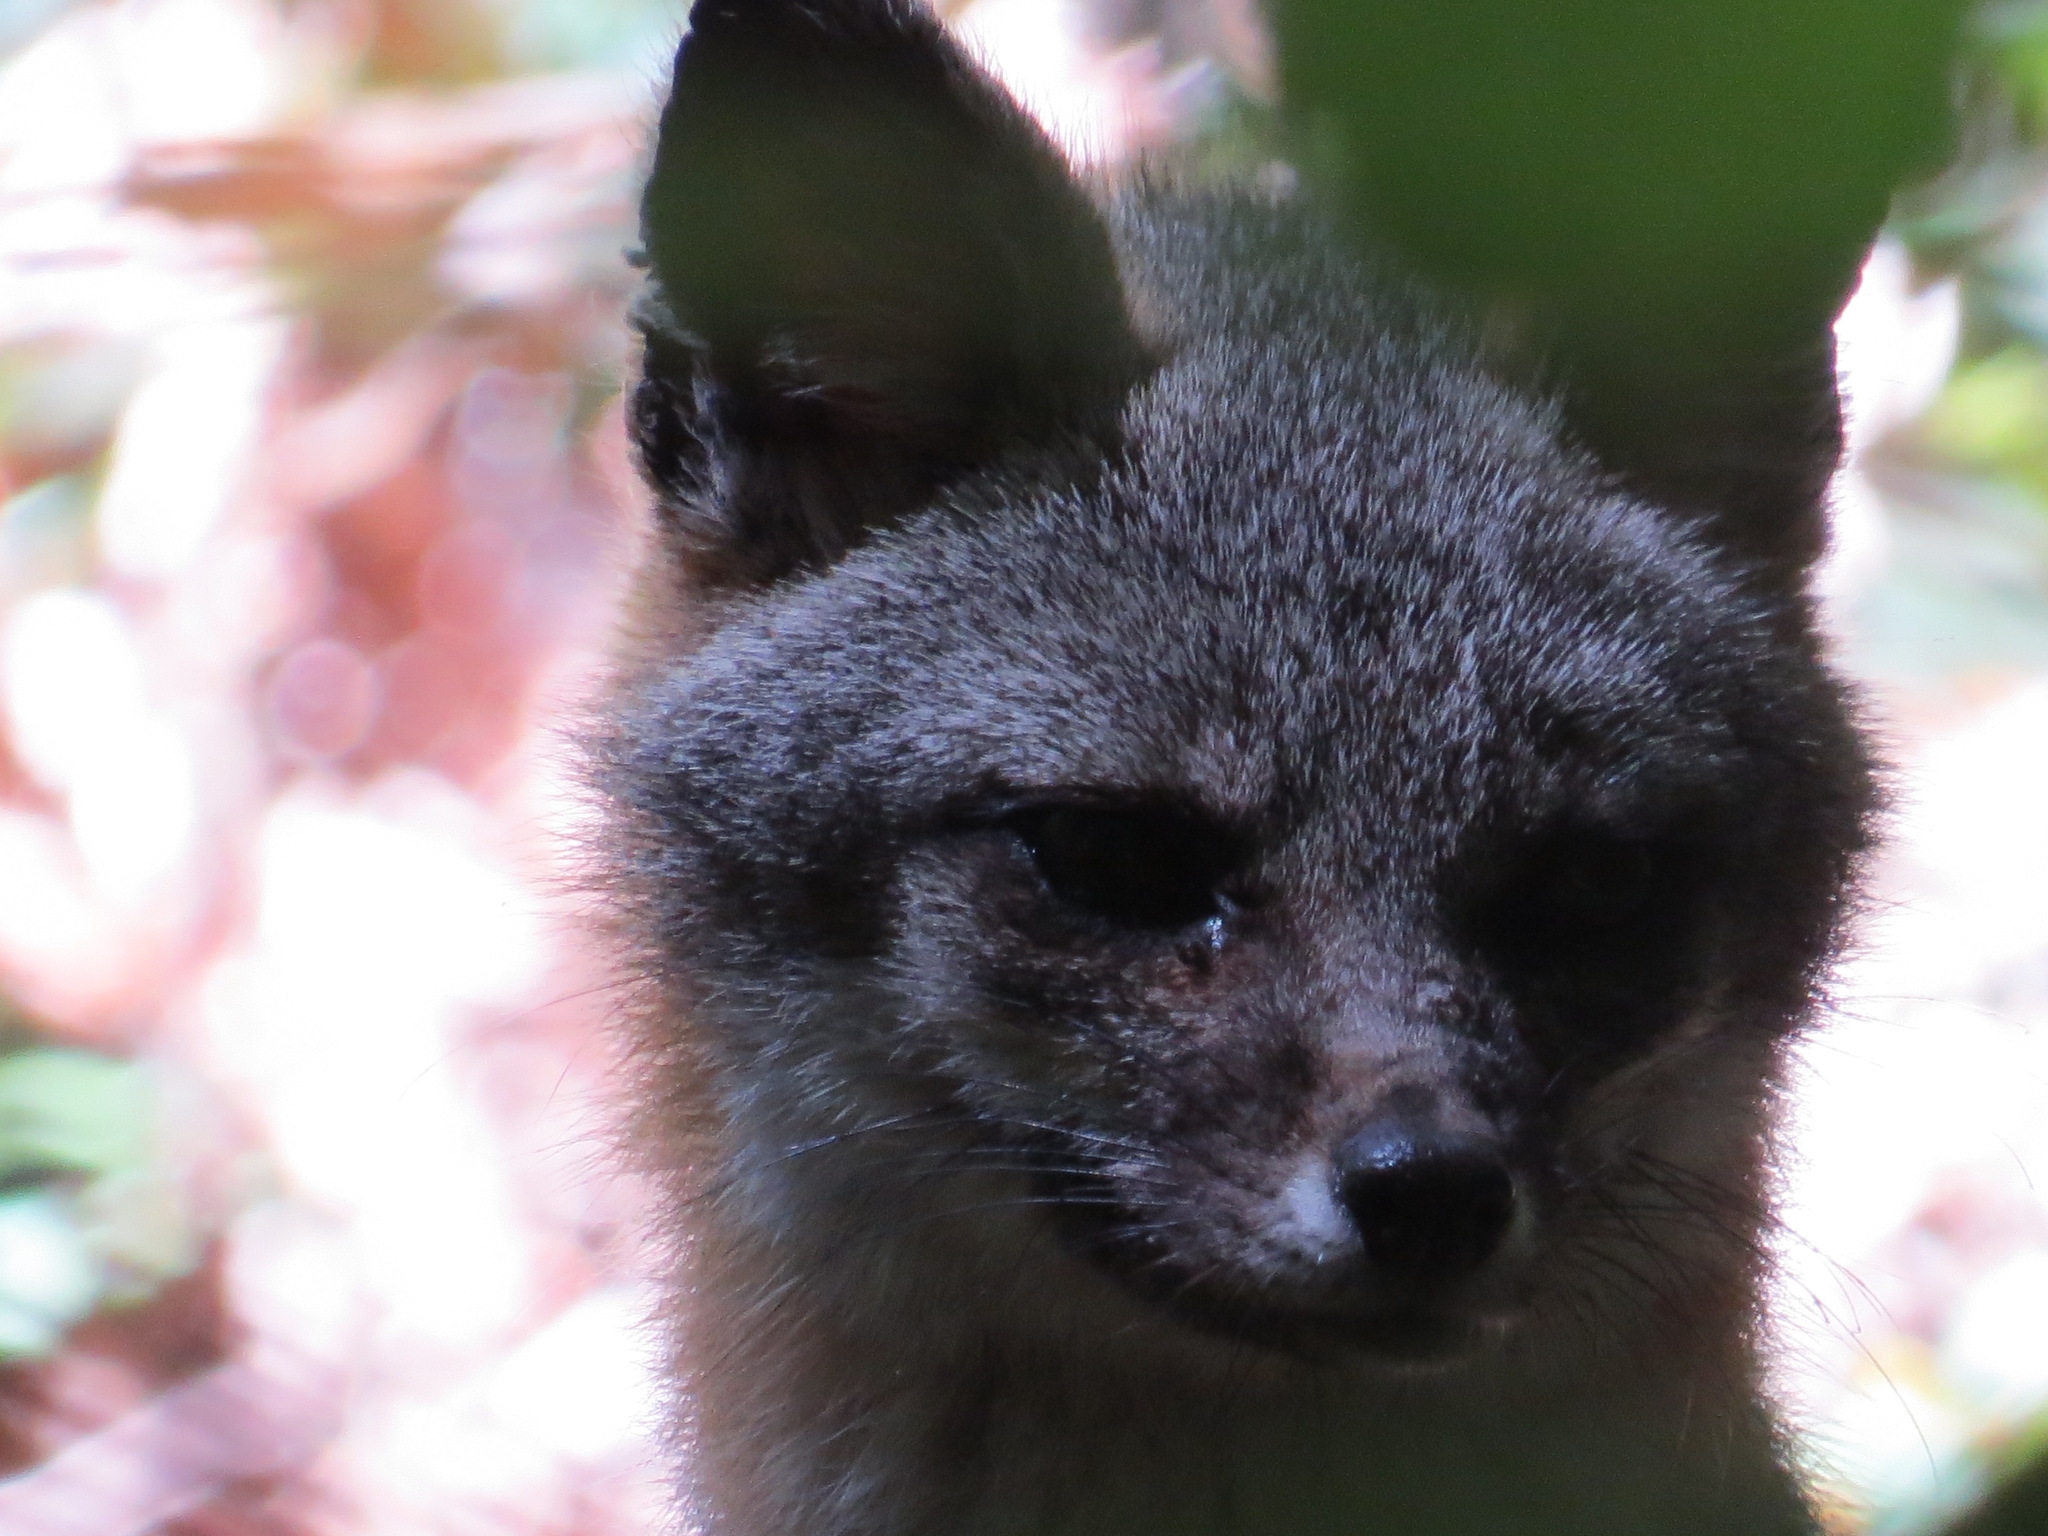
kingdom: Animalia
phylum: Chordata
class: Mammalia
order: Carnivora
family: Canidae
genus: Urocyon
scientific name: Urocyon cinereoargenteus
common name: Gray fox
